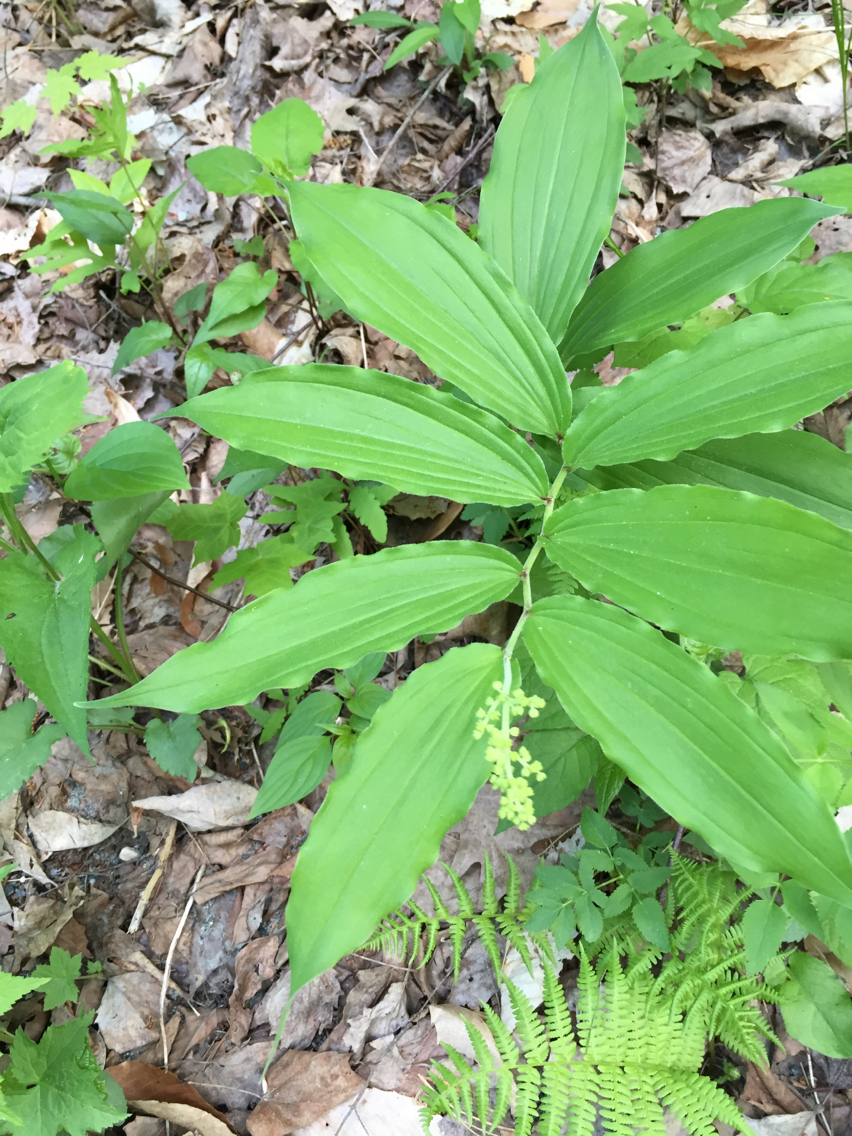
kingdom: Plantae
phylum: Tracheophyta
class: Liliopsida
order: Asparagales
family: Asparagaceae
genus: Maianthemum
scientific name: Maianthemum racemosum
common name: False spikenard
